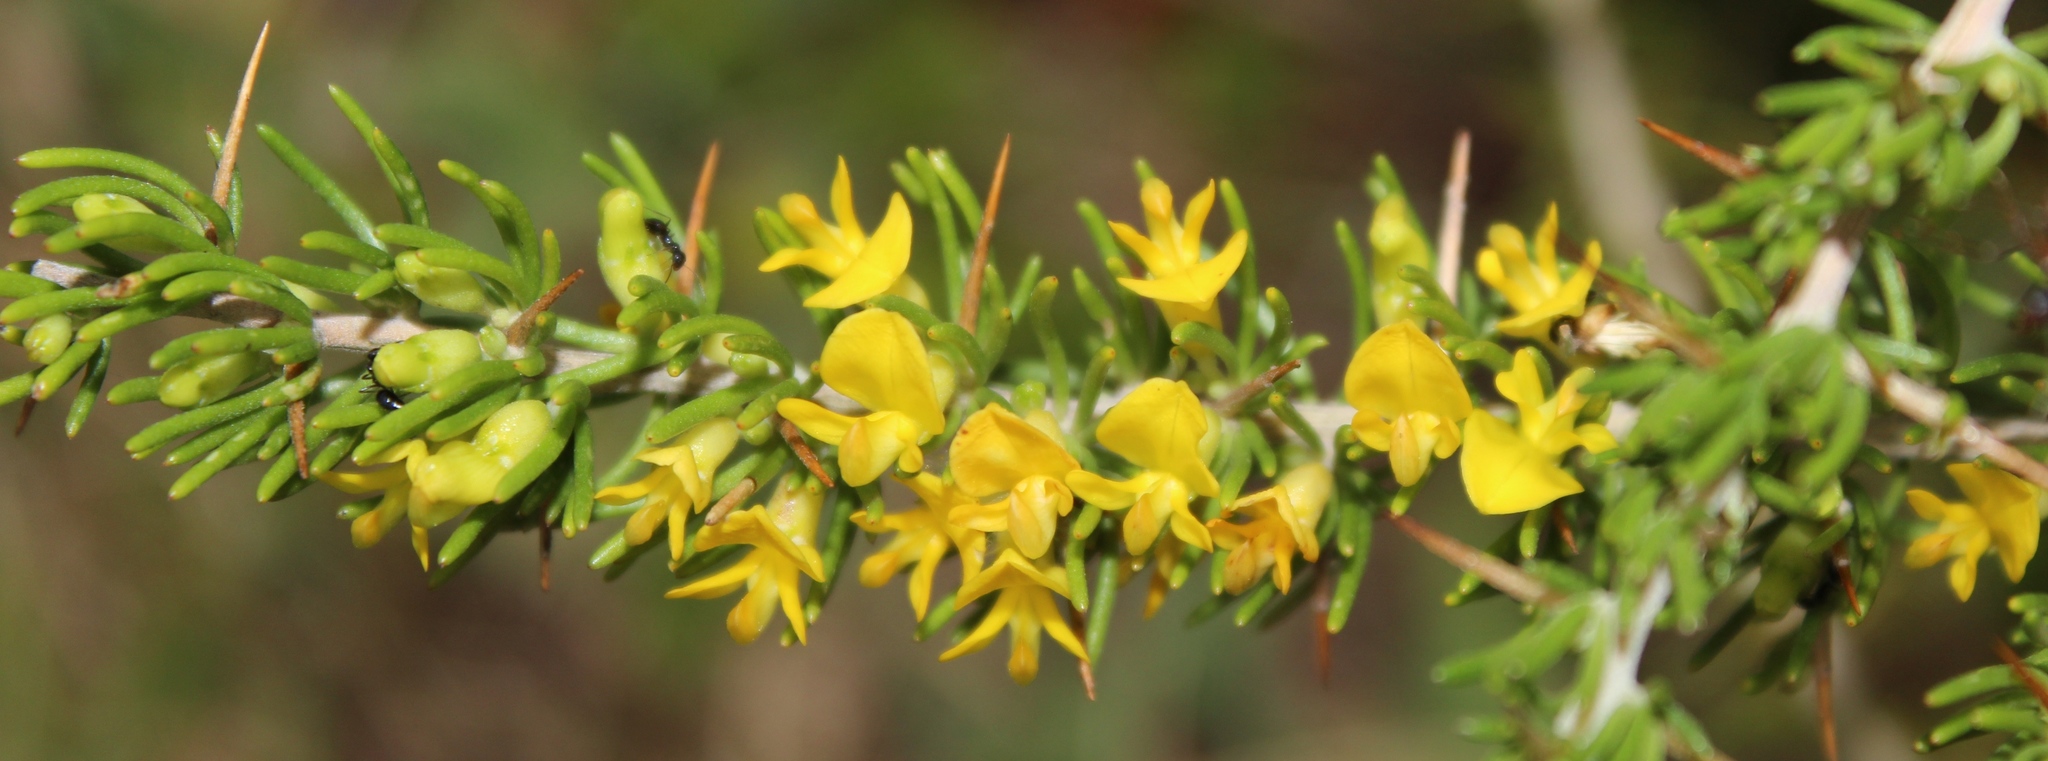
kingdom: Plantae
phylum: Tracheophyta
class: Magnoliopsida
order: Fabales
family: Fabaceae
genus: Aspalathus
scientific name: Aspalathus spinosa
